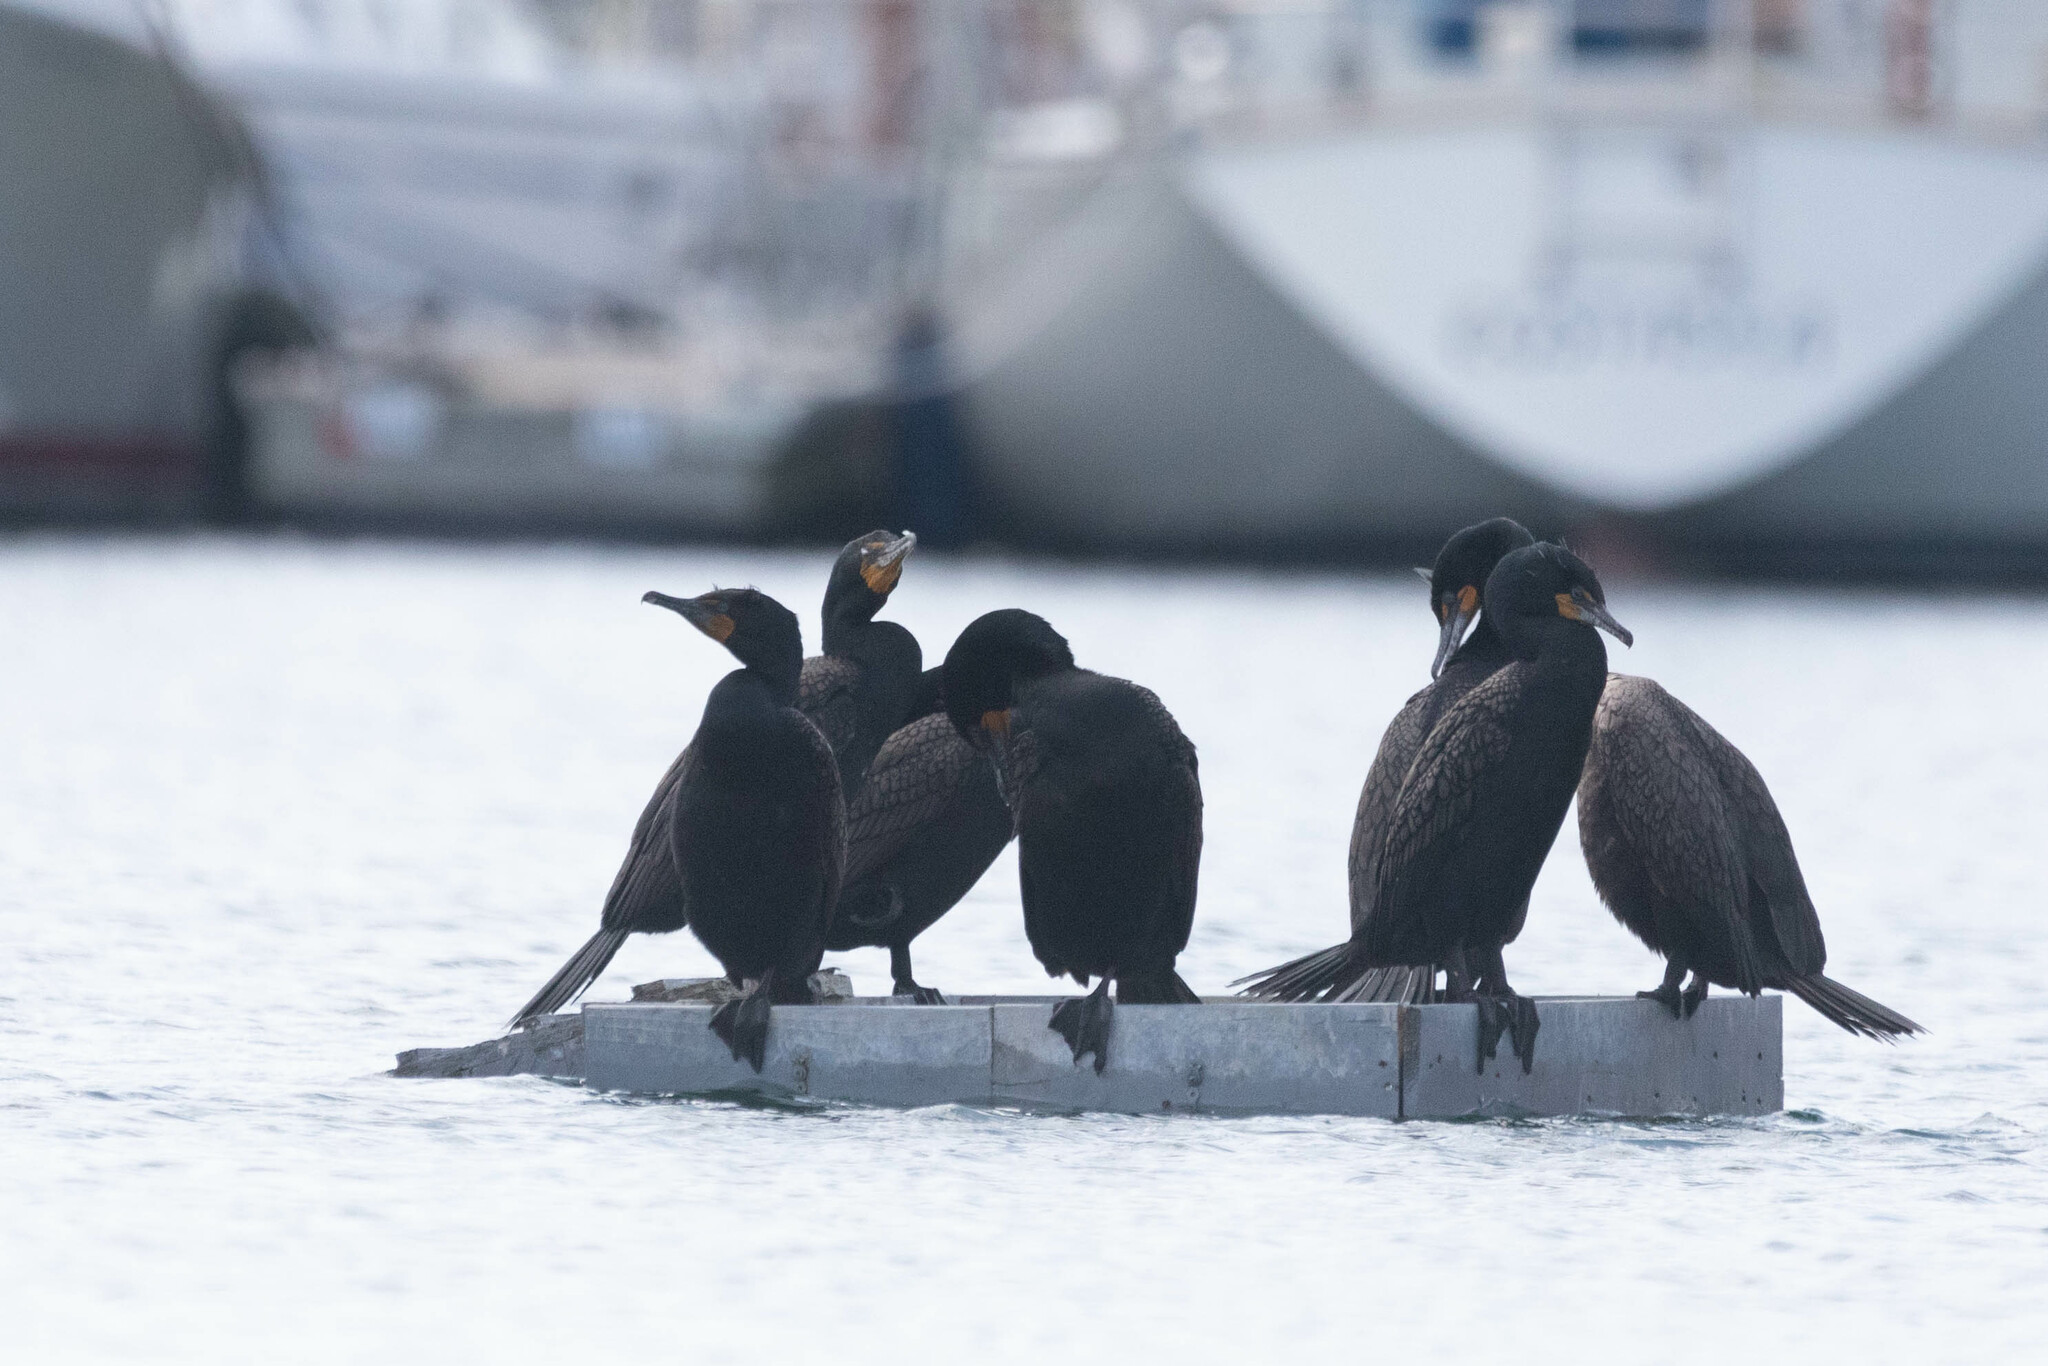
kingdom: Animalia
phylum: Chordata
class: Aves
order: Suliformes
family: Phalacrocoracidae
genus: Phalacrocorax
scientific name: Phalacrocorax auritus
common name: Double-crested cormorant
